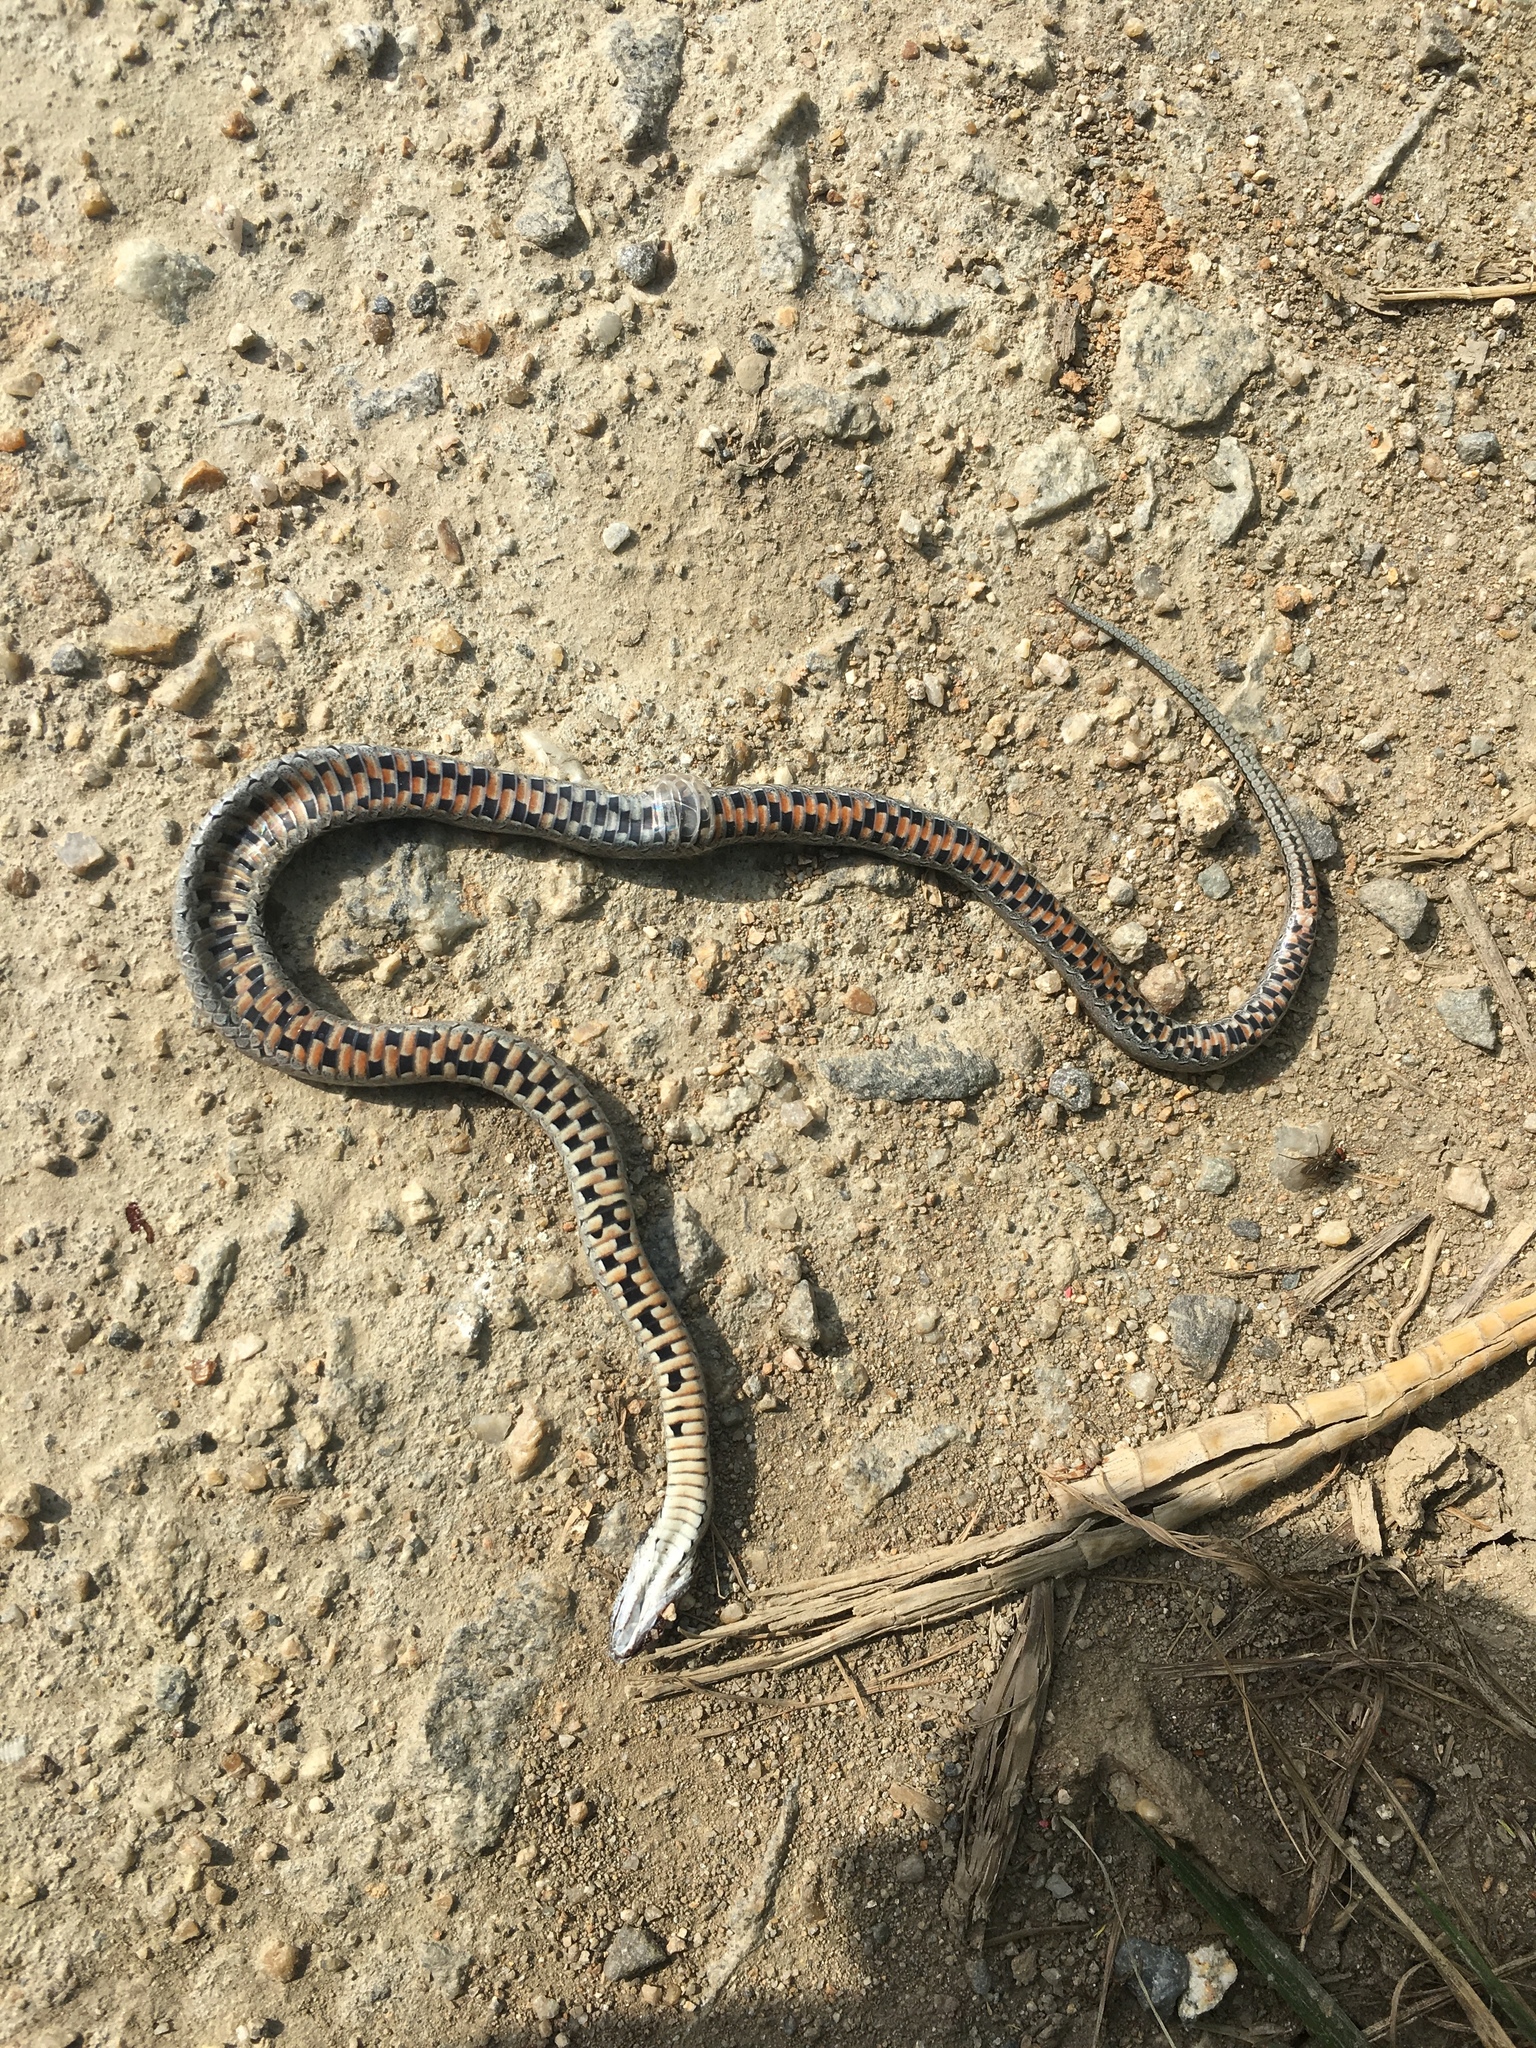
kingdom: Animalia
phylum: Chordata
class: Squamata
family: Colubridae
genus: Oocatochus
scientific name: Oocatochus rufodorsatus
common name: Frog-eating rat snake
